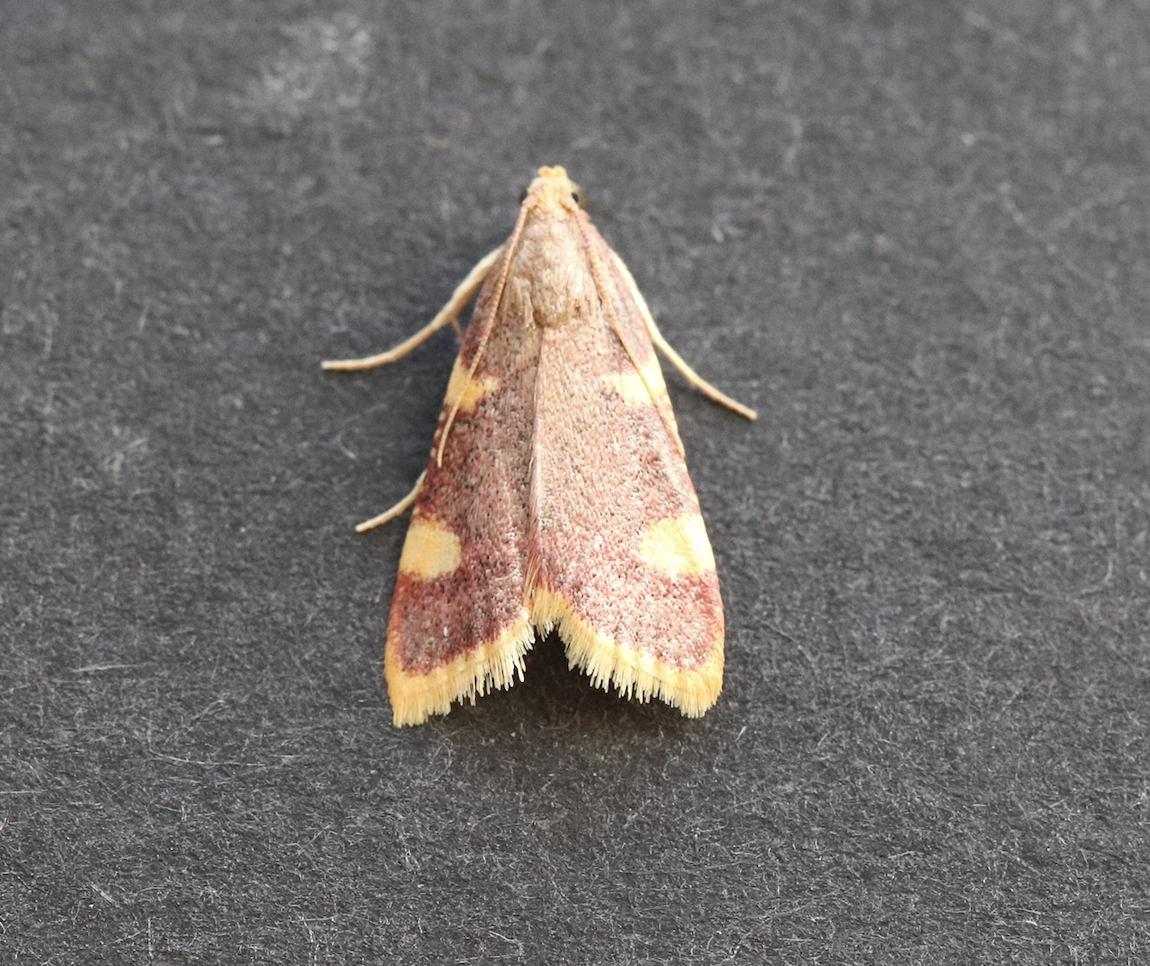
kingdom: Animalia
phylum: Arthropoda
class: Insecta
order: Lepidoptera
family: Pyralidae
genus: Hypsopygia
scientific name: Hypsopygia costalis
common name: Gold triangle
